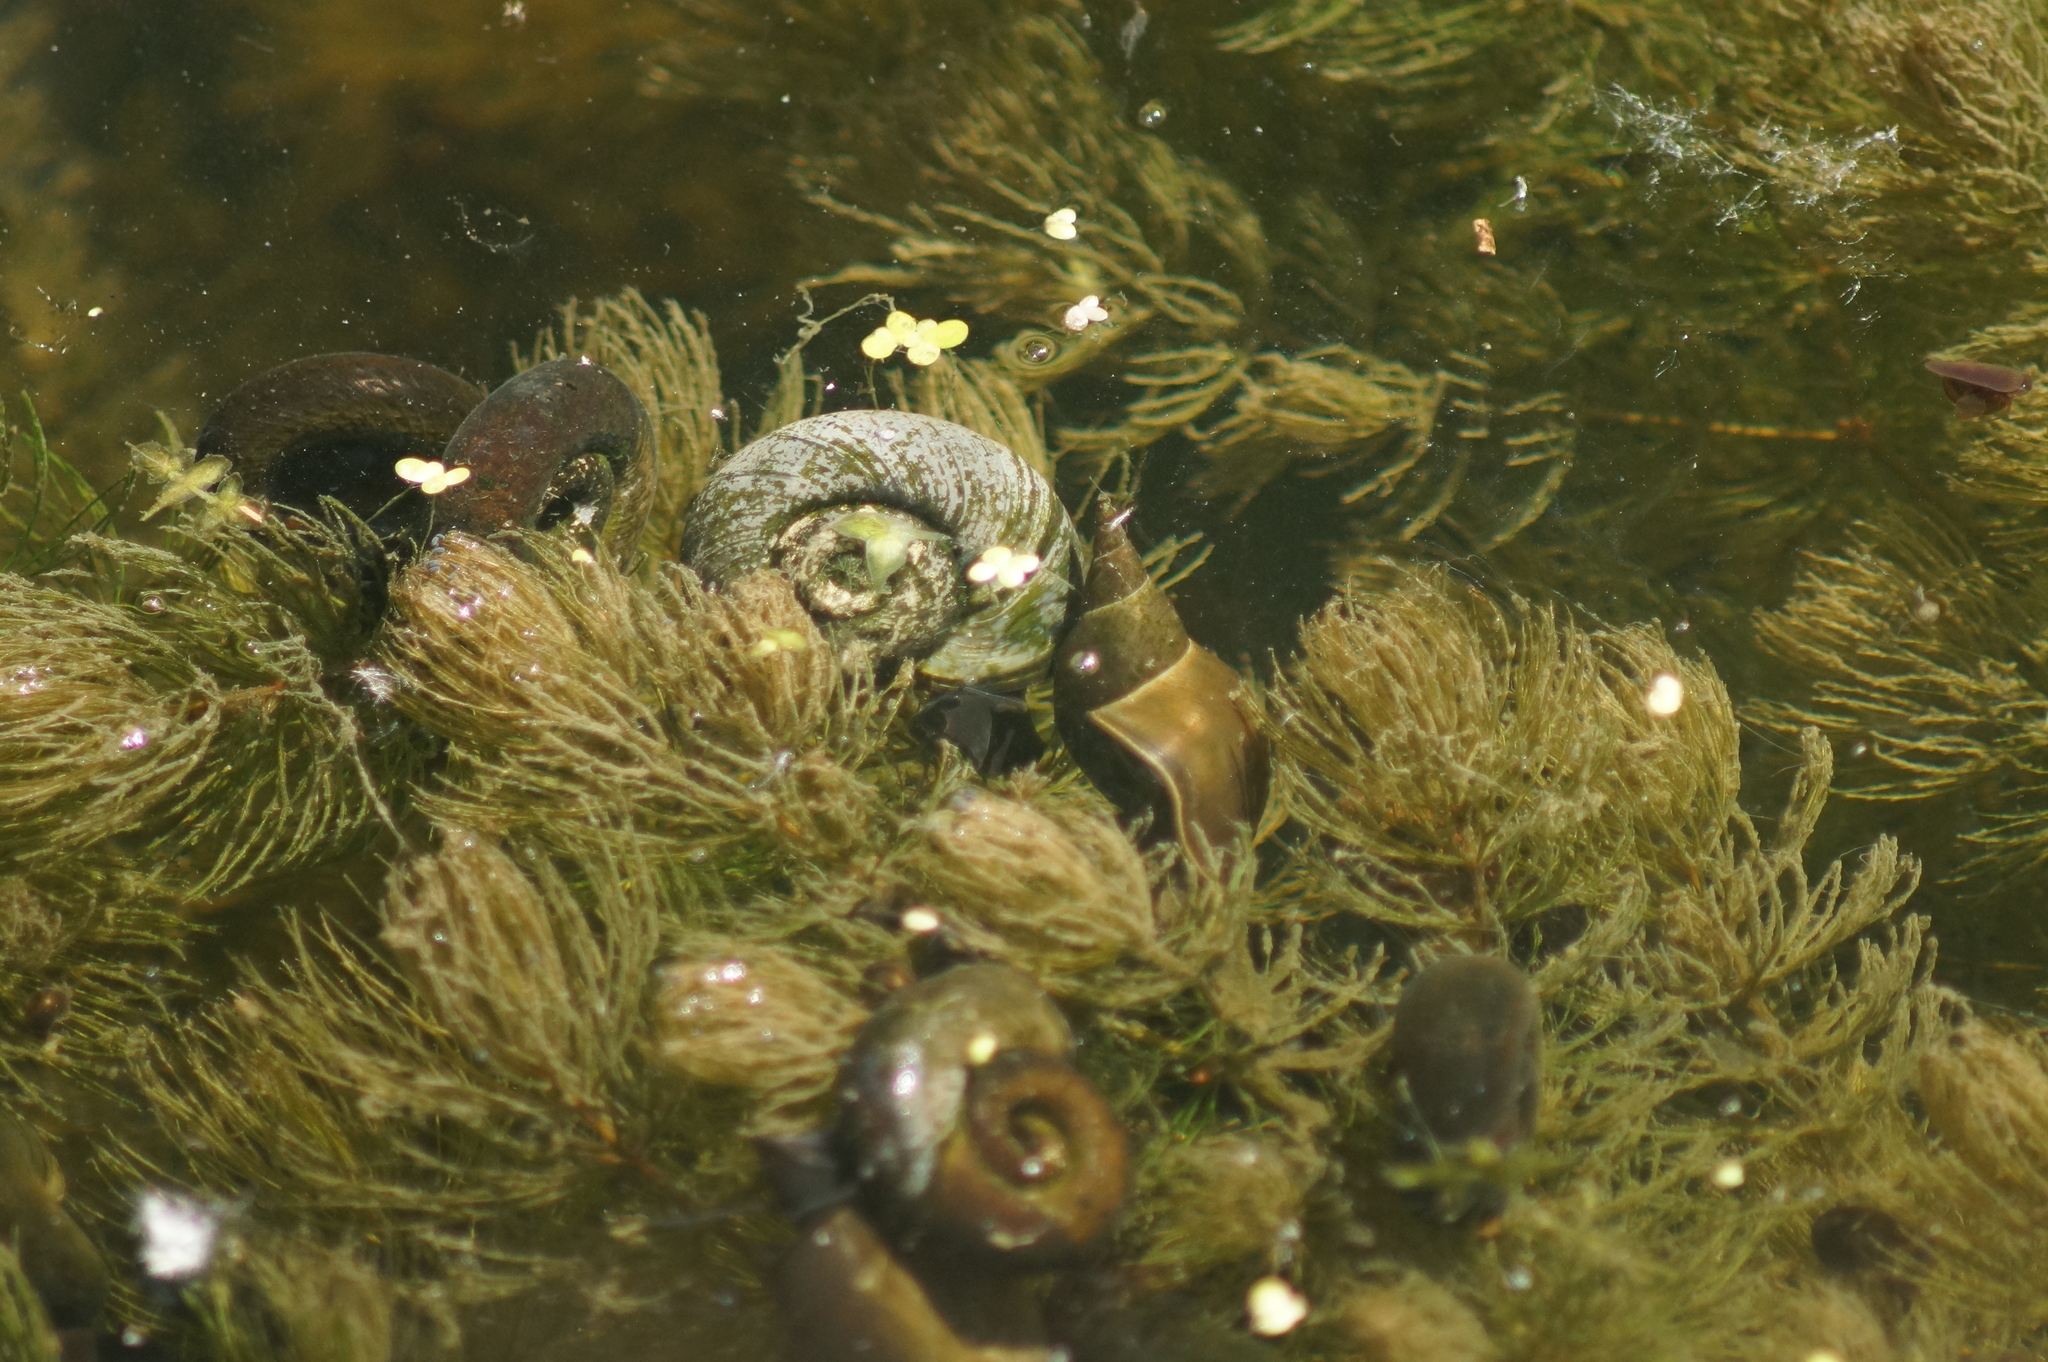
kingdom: Animalia
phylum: Mollusca
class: Gastropoda
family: Lymnaeidae
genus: Lymnaea
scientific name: Lymnaea stagnalis
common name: Great pond snail
